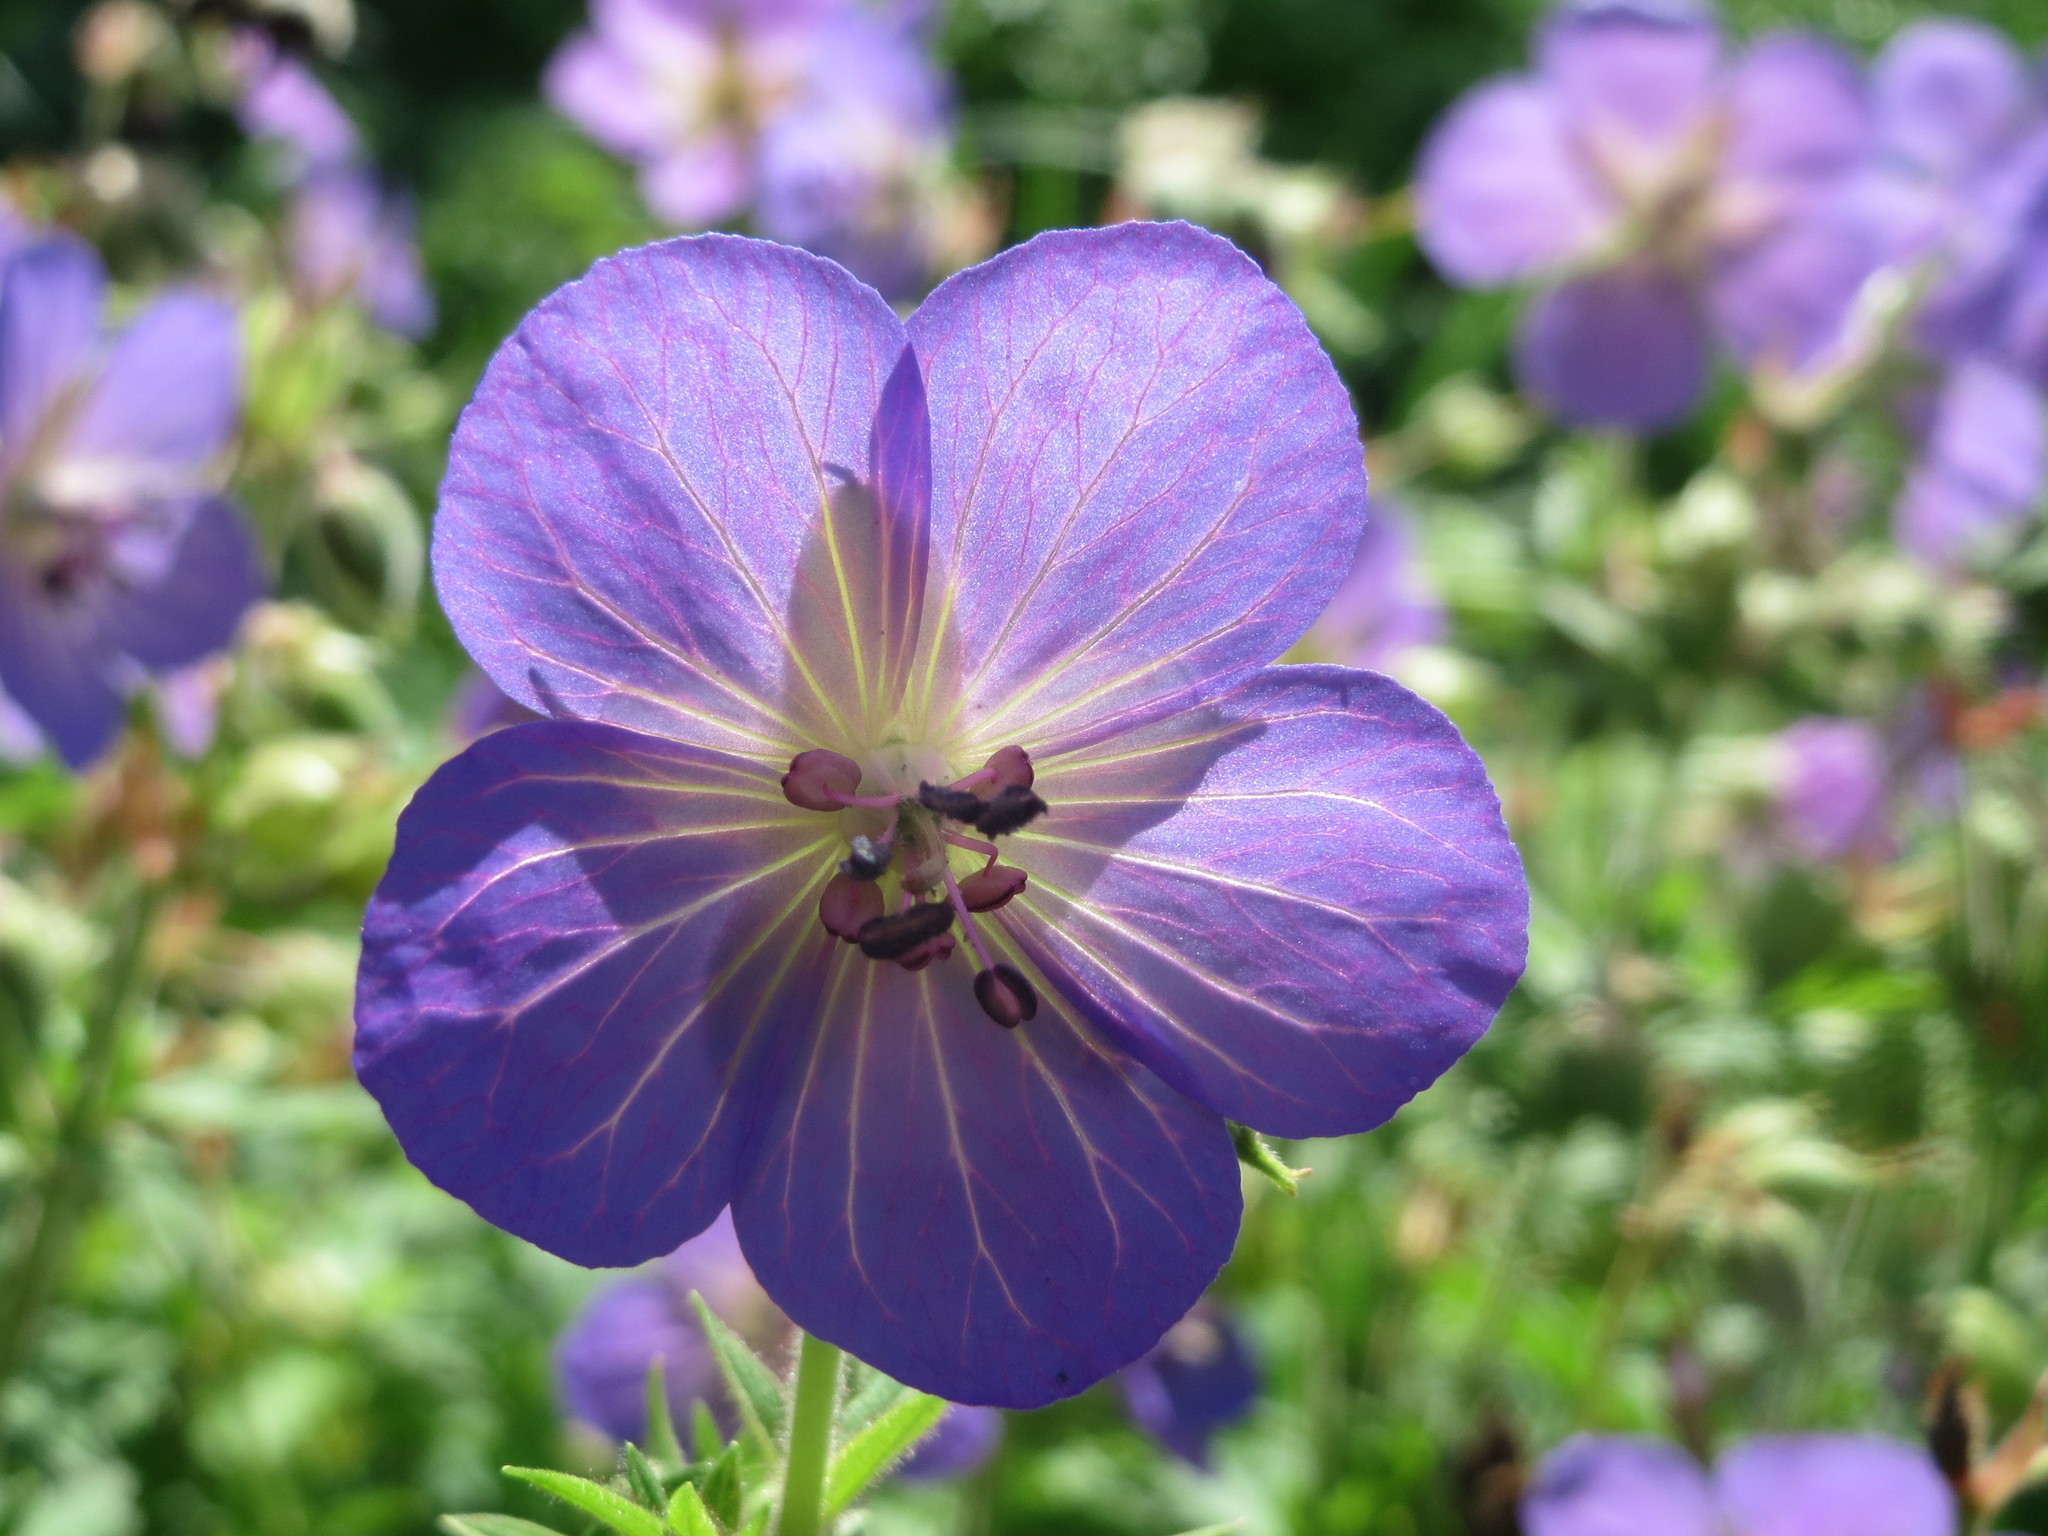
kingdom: Plantae
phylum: Tracheophyta
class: Magnoliopsida
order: Geraniales
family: Geraniaceae
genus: Geranium
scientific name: Geranium pratense
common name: Meadow crane's-bill
